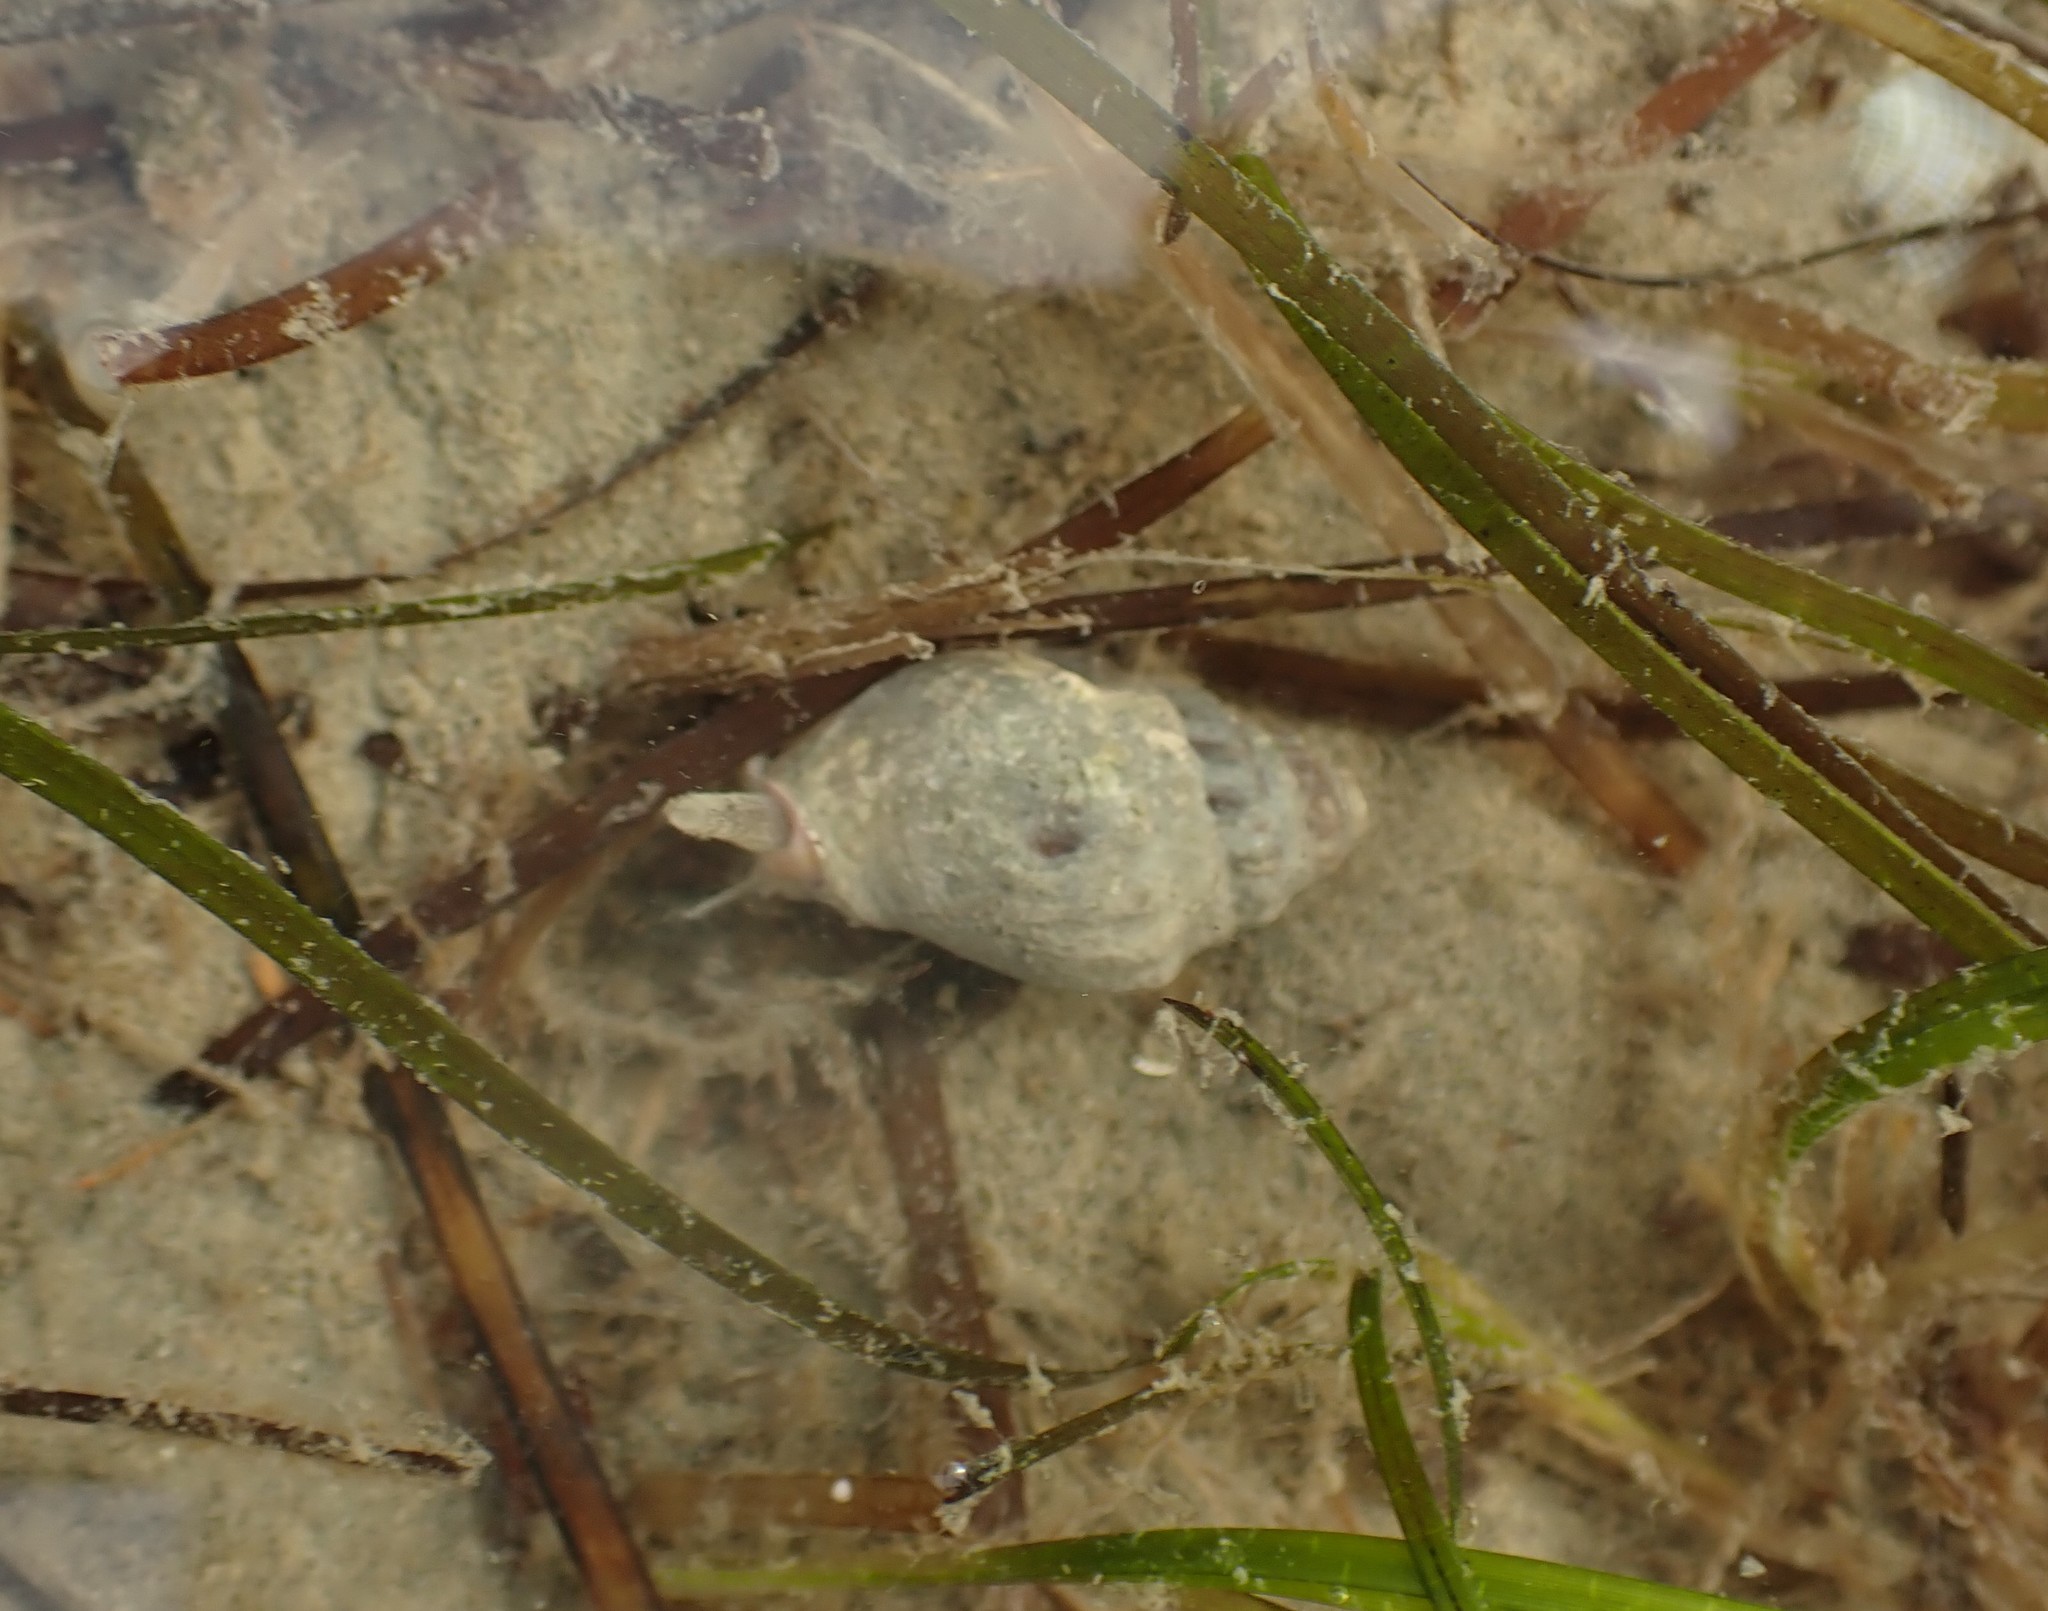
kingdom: Animalia
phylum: Mollusca
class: Gastropoda
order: Neogastropoda
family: Cominellidae
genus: Cominella
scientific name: Cominella glandiformis
